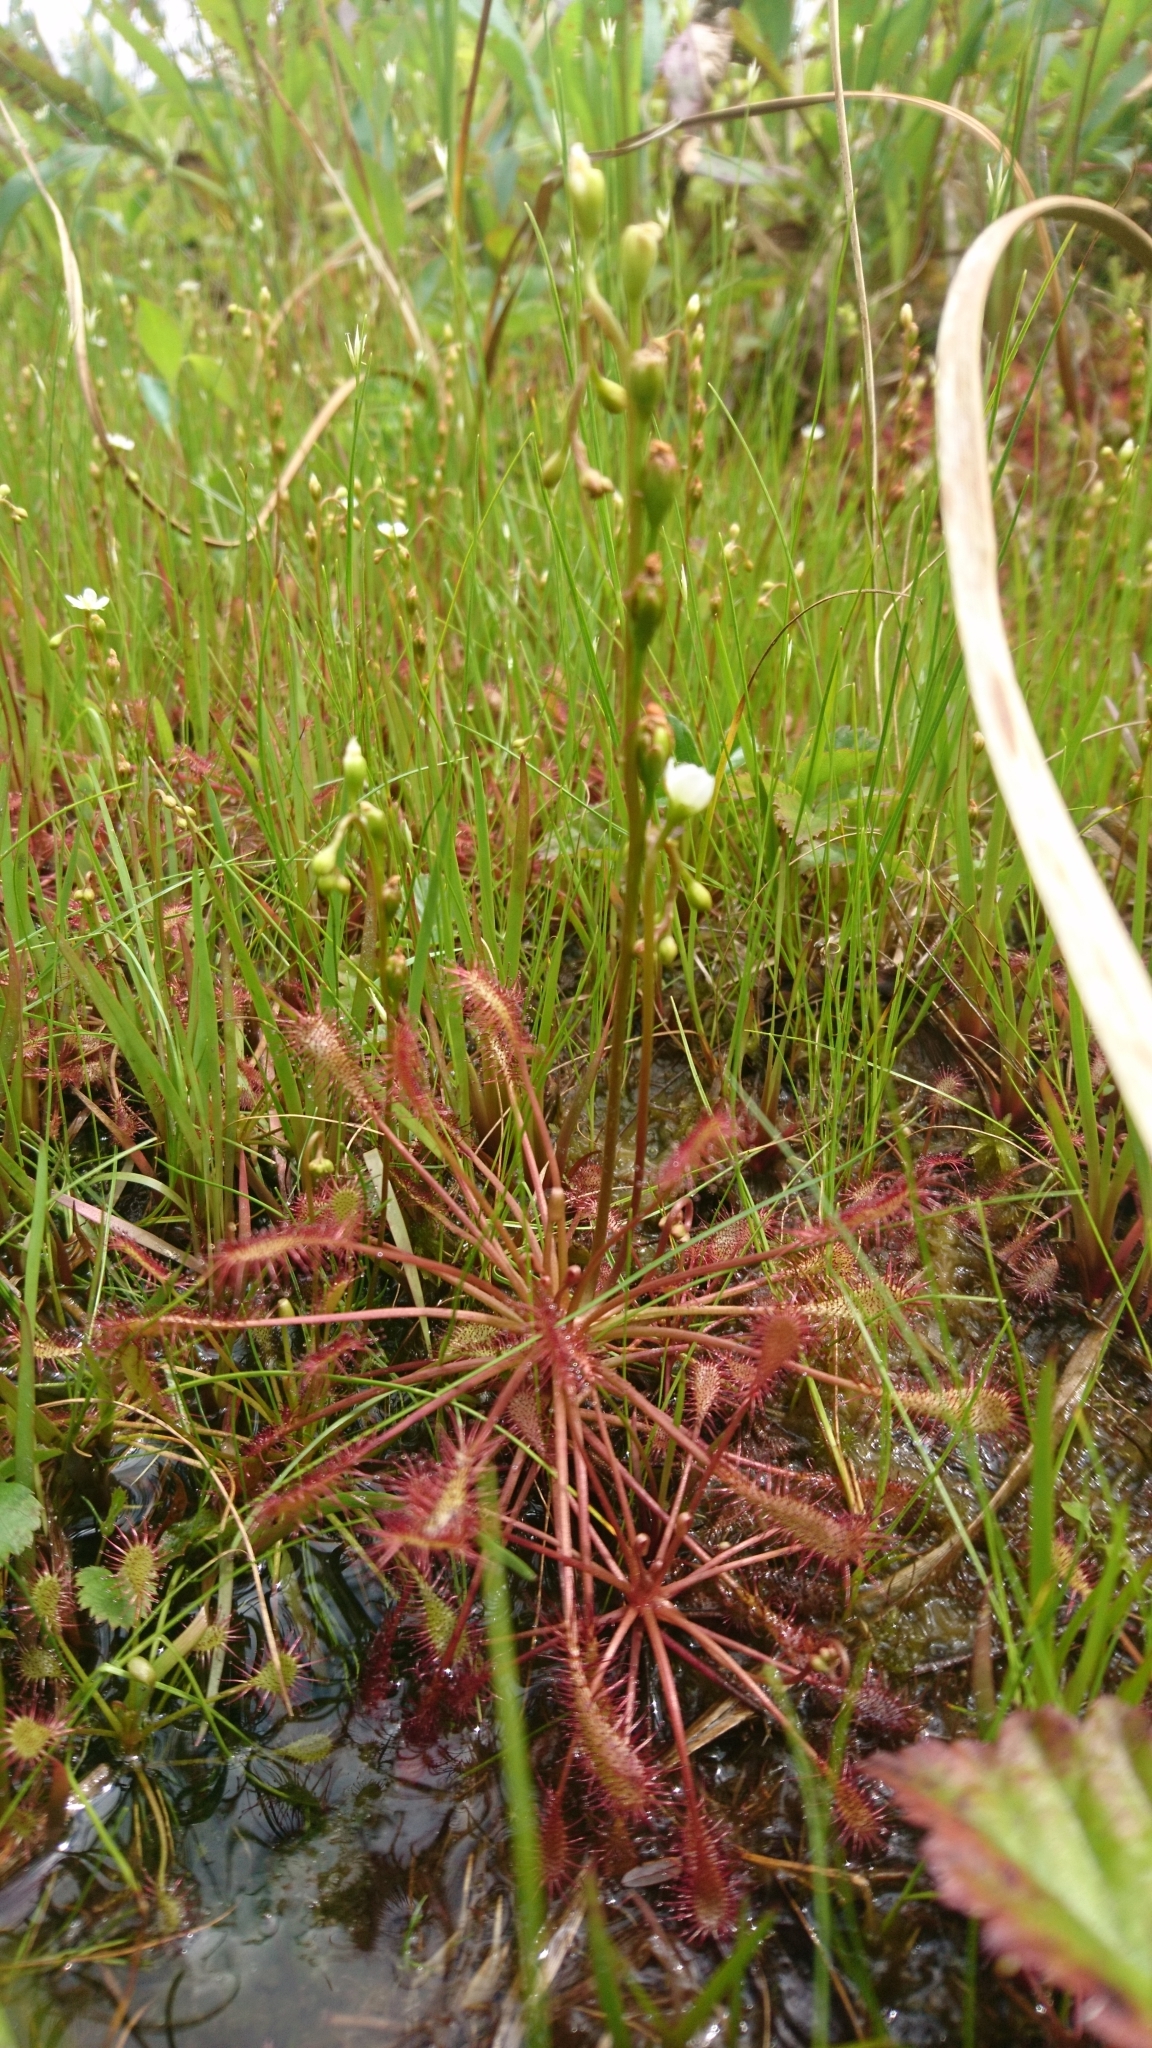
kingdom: Plantae
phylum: Tracheophyta
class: Magnoliopsida
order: Caryophyllales
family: Droseraceae
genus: Drosera
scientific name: Drosera intermedia
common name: Oblong-leaved sundew
